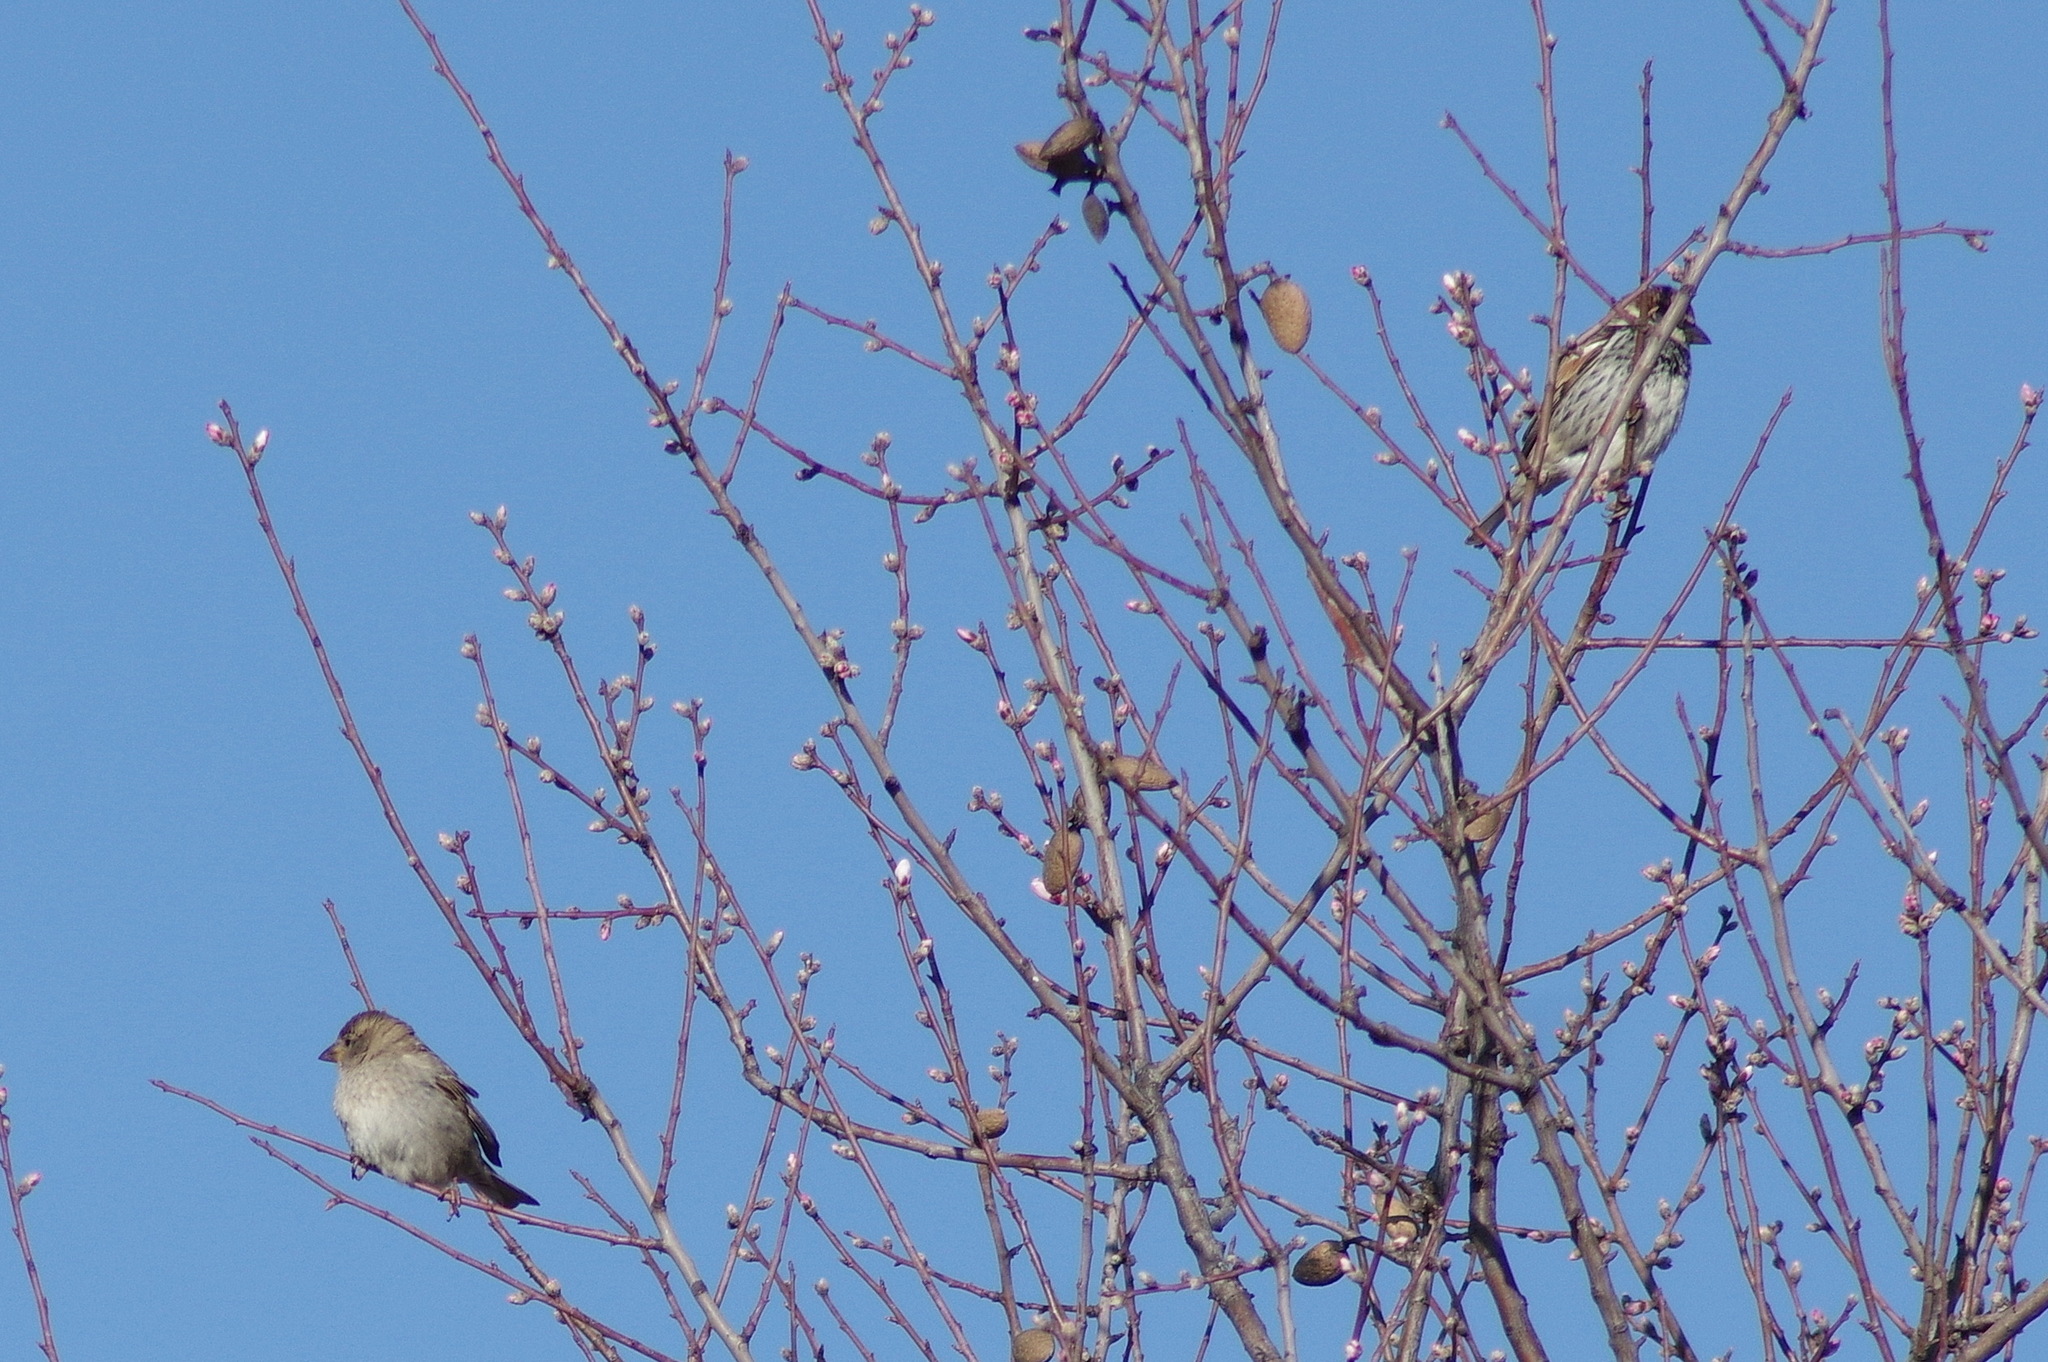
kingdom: Animalia
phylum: Chordata
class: Aves
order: Passeriformes
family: Passeridae
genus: Passer
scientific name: Passer hispaniolensis
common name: Spanish sparrow
